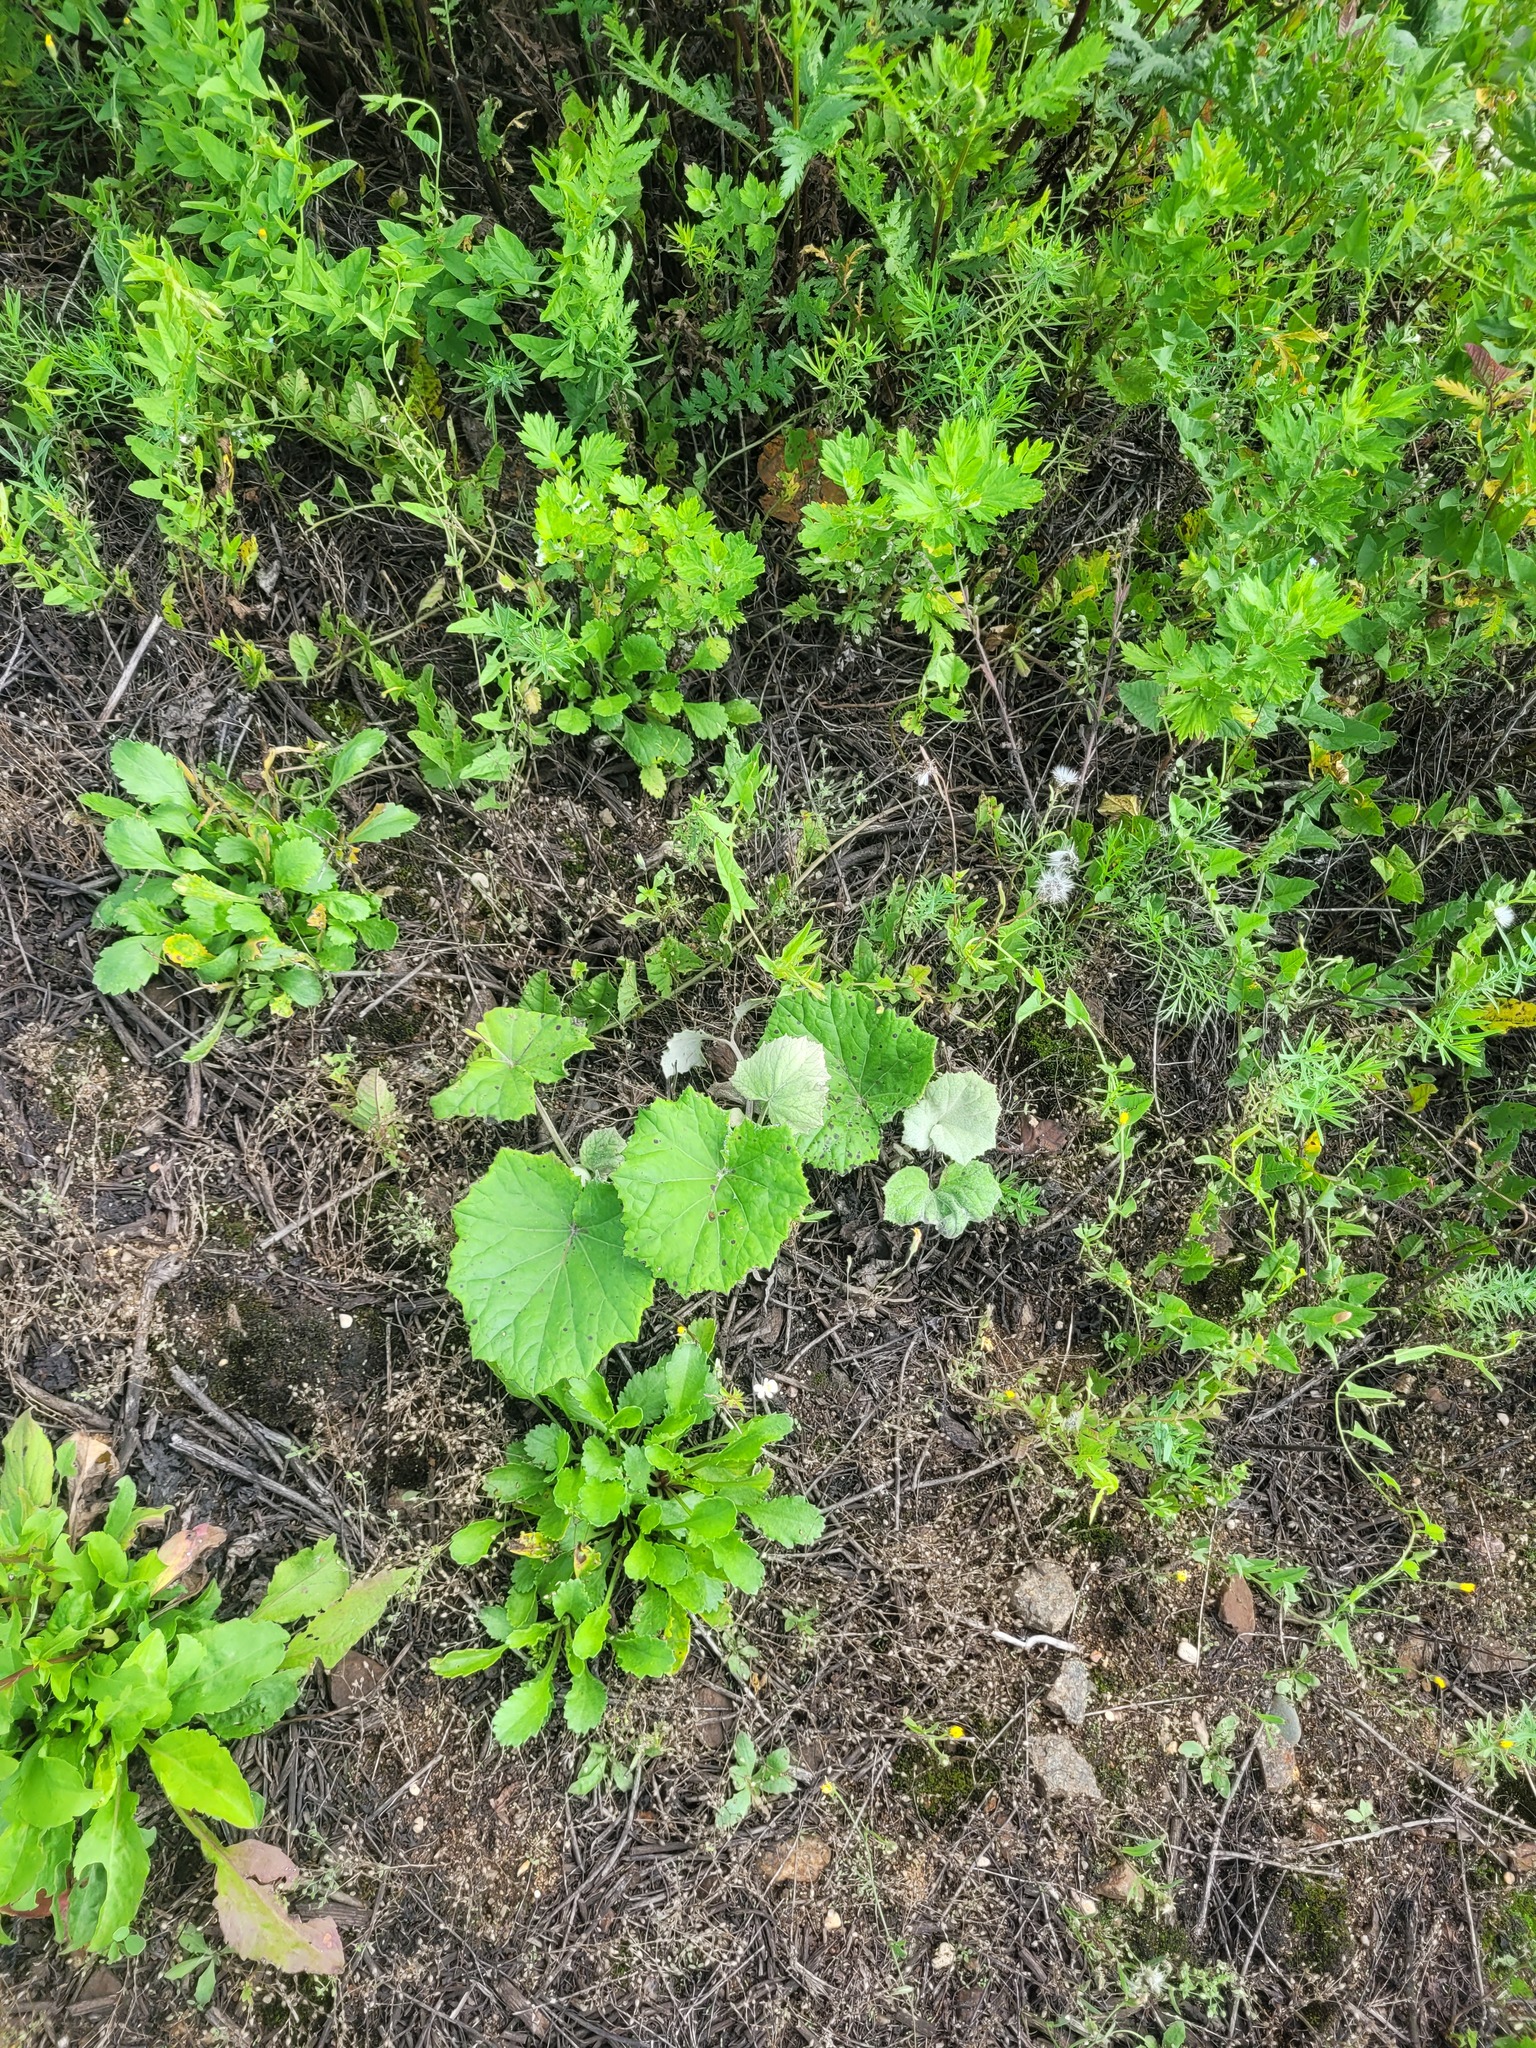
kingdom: Plantae
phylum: Tracheophyta
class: Magnoliopsida
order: Asterales
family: Asteraceae
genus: Tussilago
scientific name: Tussilago farfara
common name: Coltsfoot
